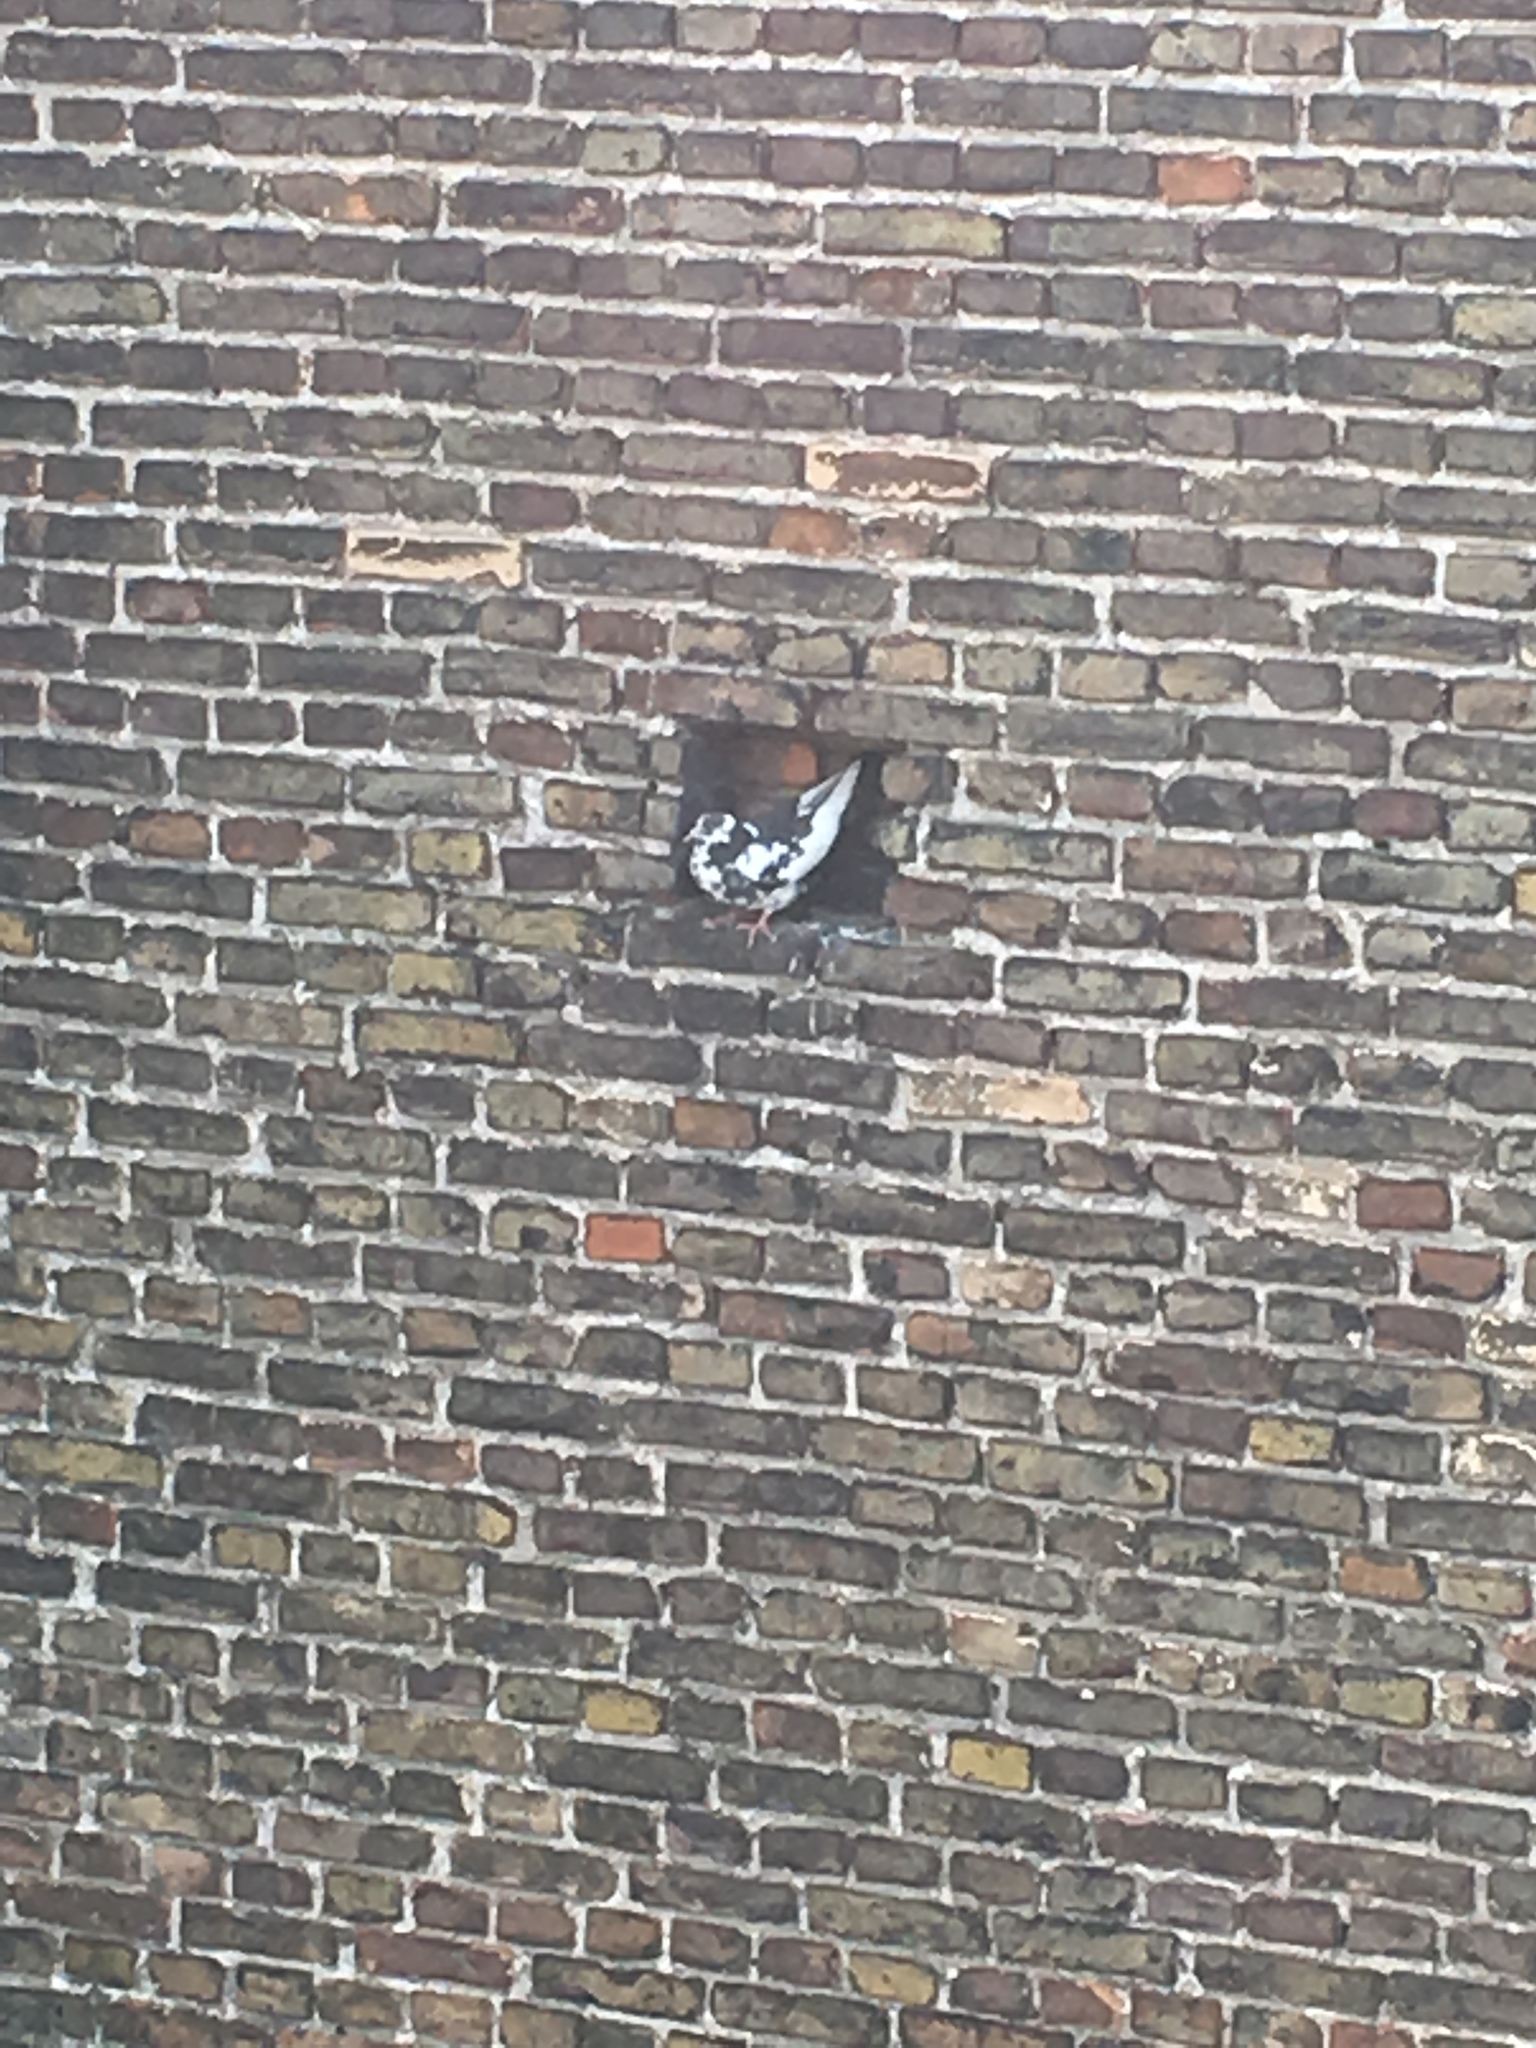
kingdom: Animalia
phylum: Chordata
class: Aves
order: Columbiformes
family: Columbidae
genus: Columba
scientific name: Columba livia
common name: Rock pigeon
